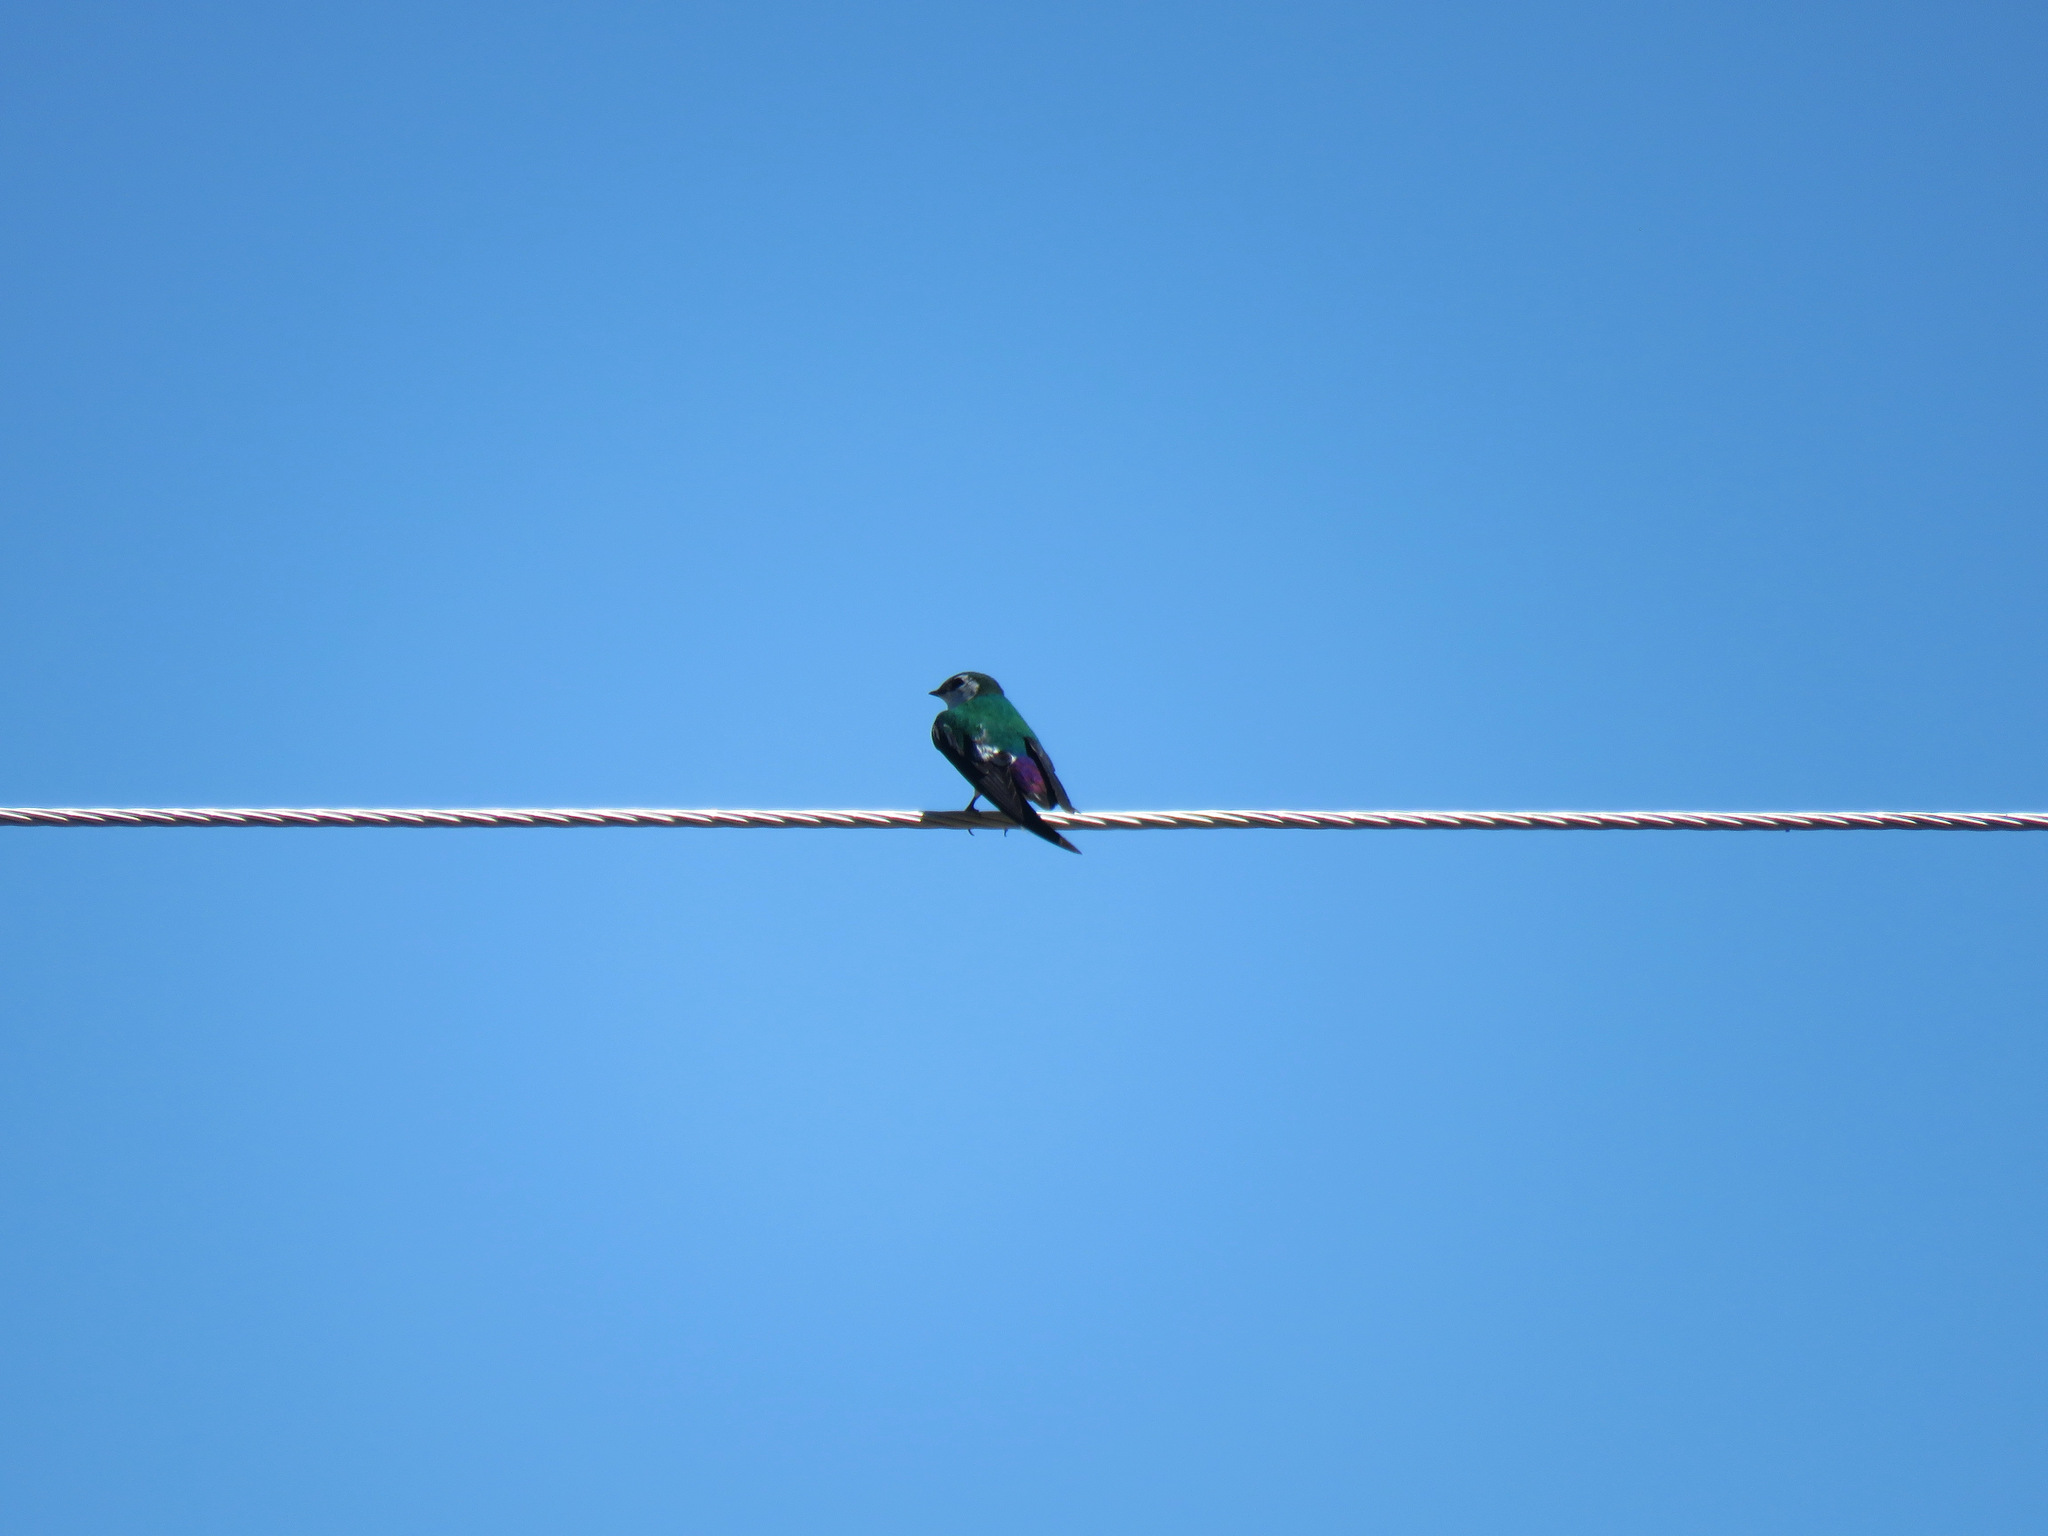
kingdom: Animalia
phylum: Chordata
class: Aves
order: Passeriformes
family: Hirundinidae
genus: Tachycineta
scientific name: Tachycineta thalassina
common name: Violet-green swallow
